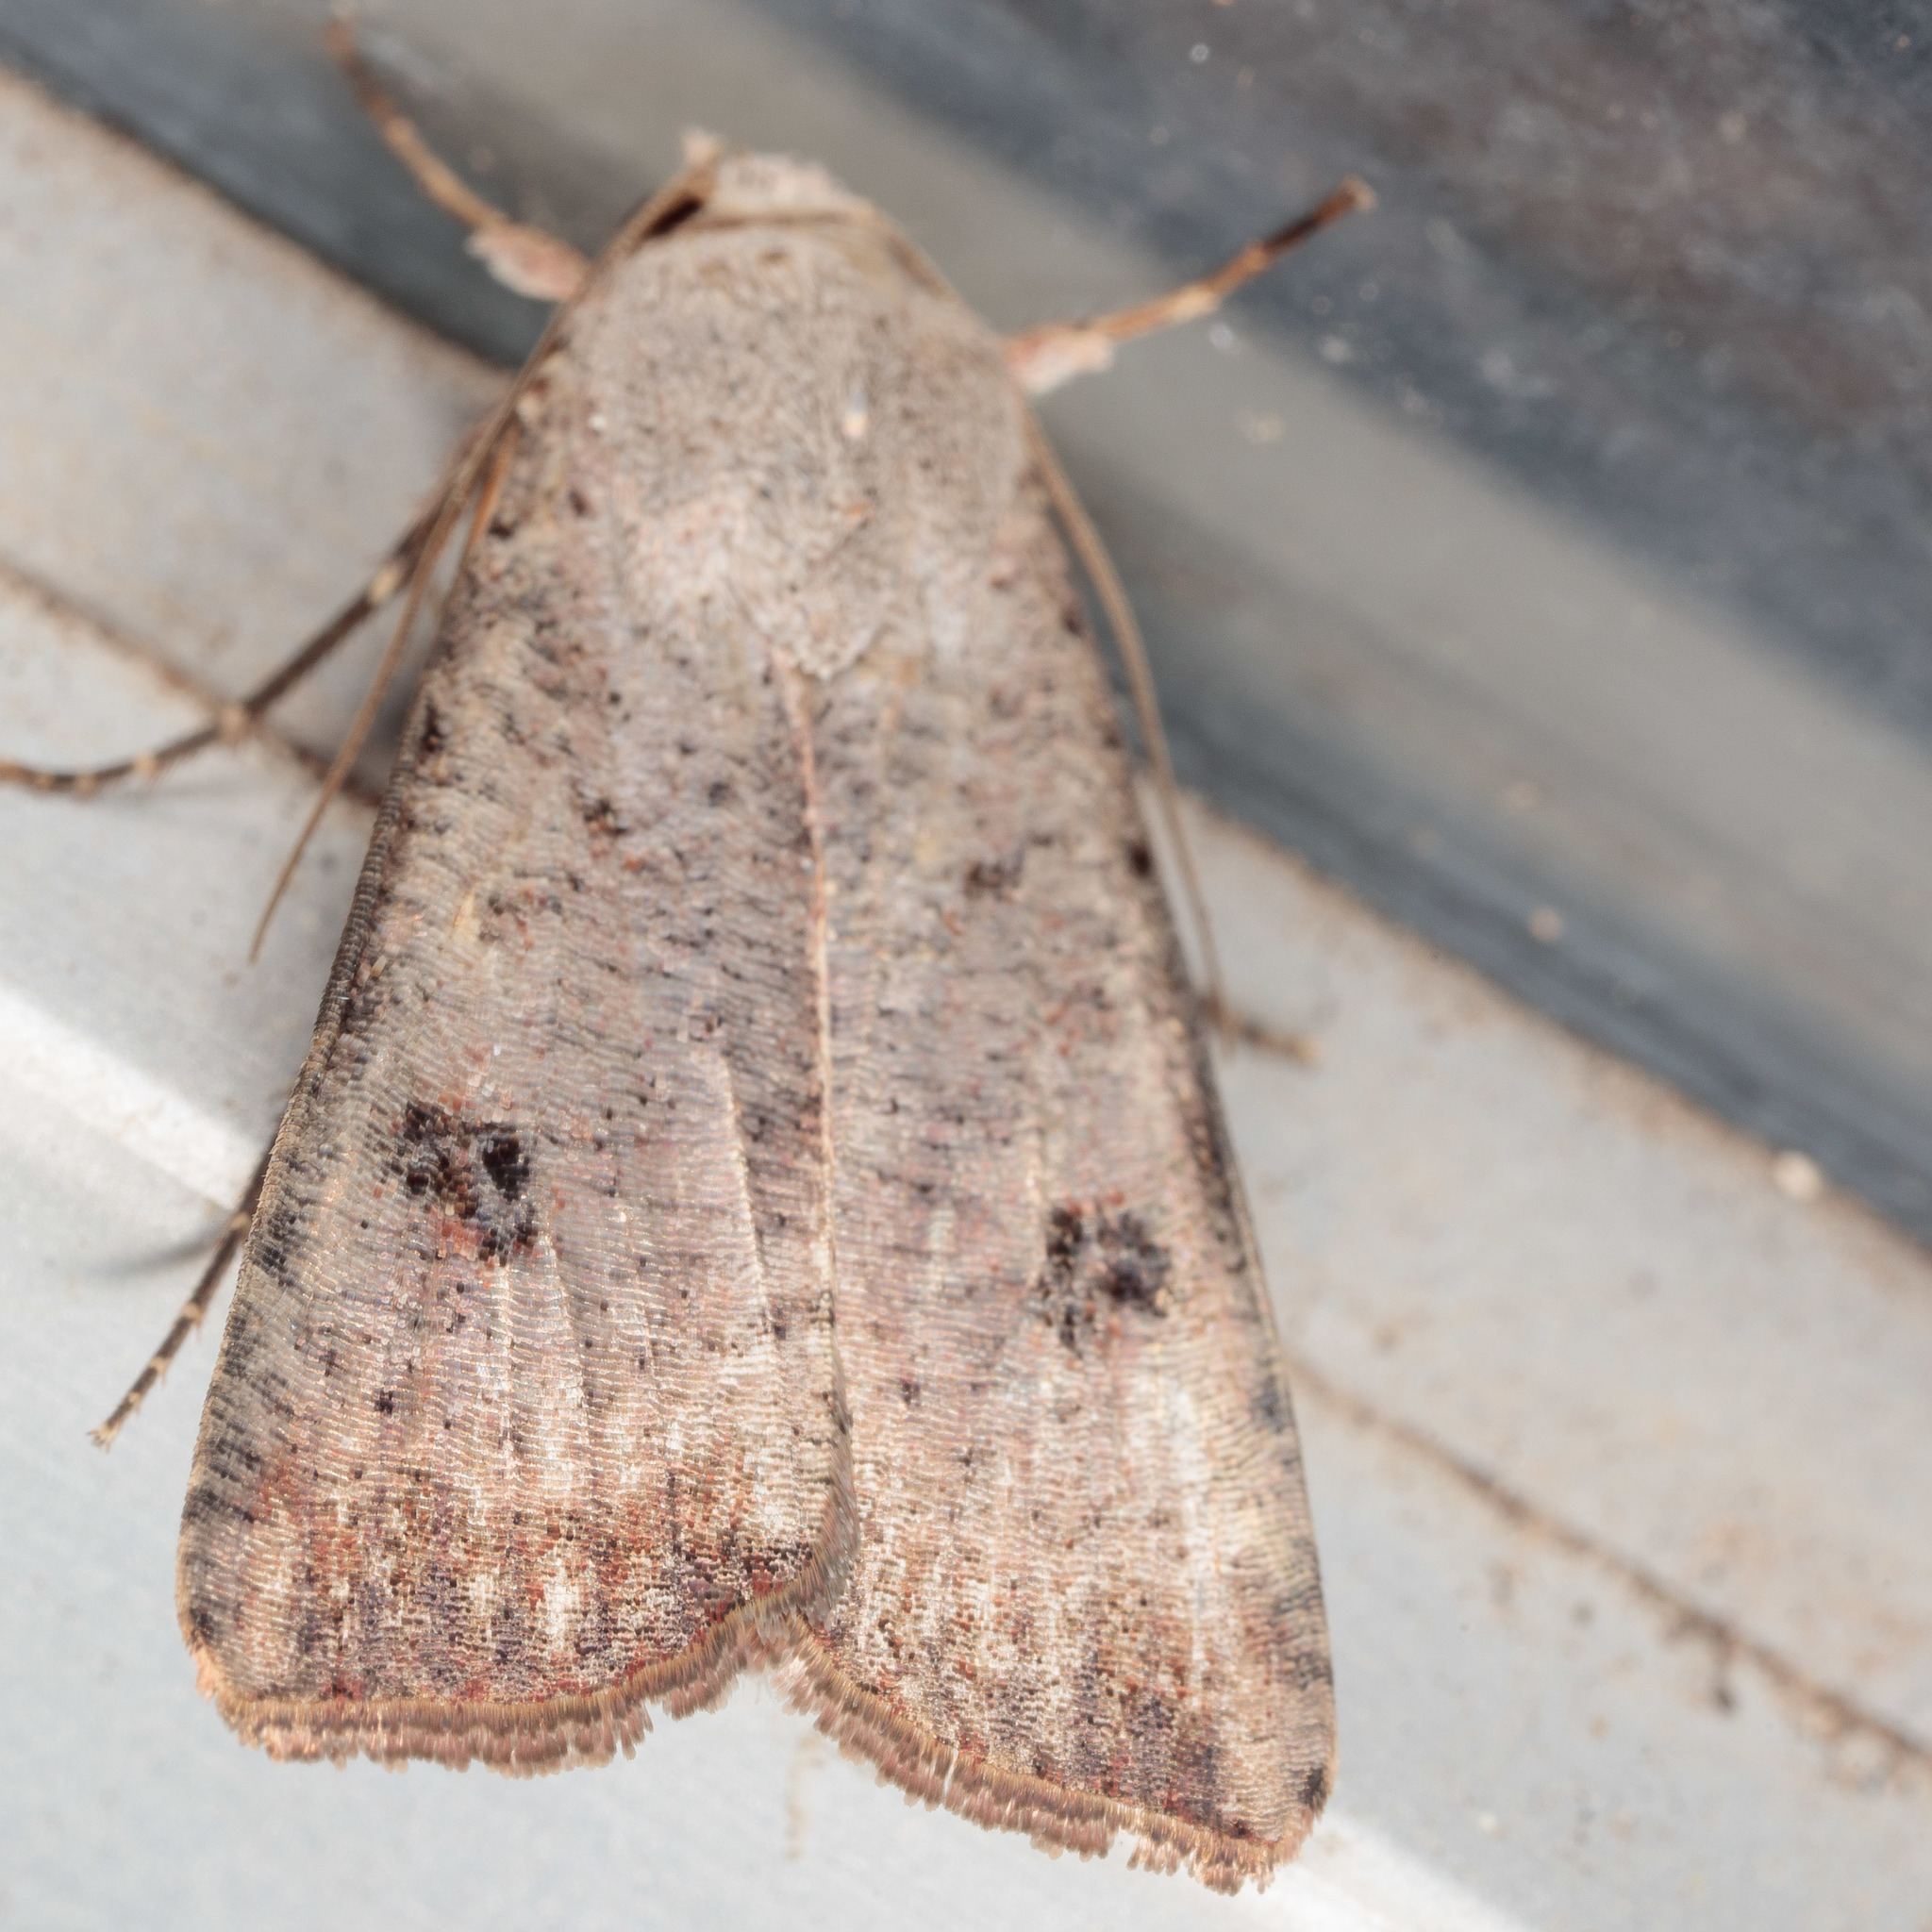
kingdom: Animalia
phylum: Arthropoda
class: Insecta
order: Lepidoptera
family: Noctuidae
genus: Anicla
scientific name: Anicla infecta
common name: Green cutworm
